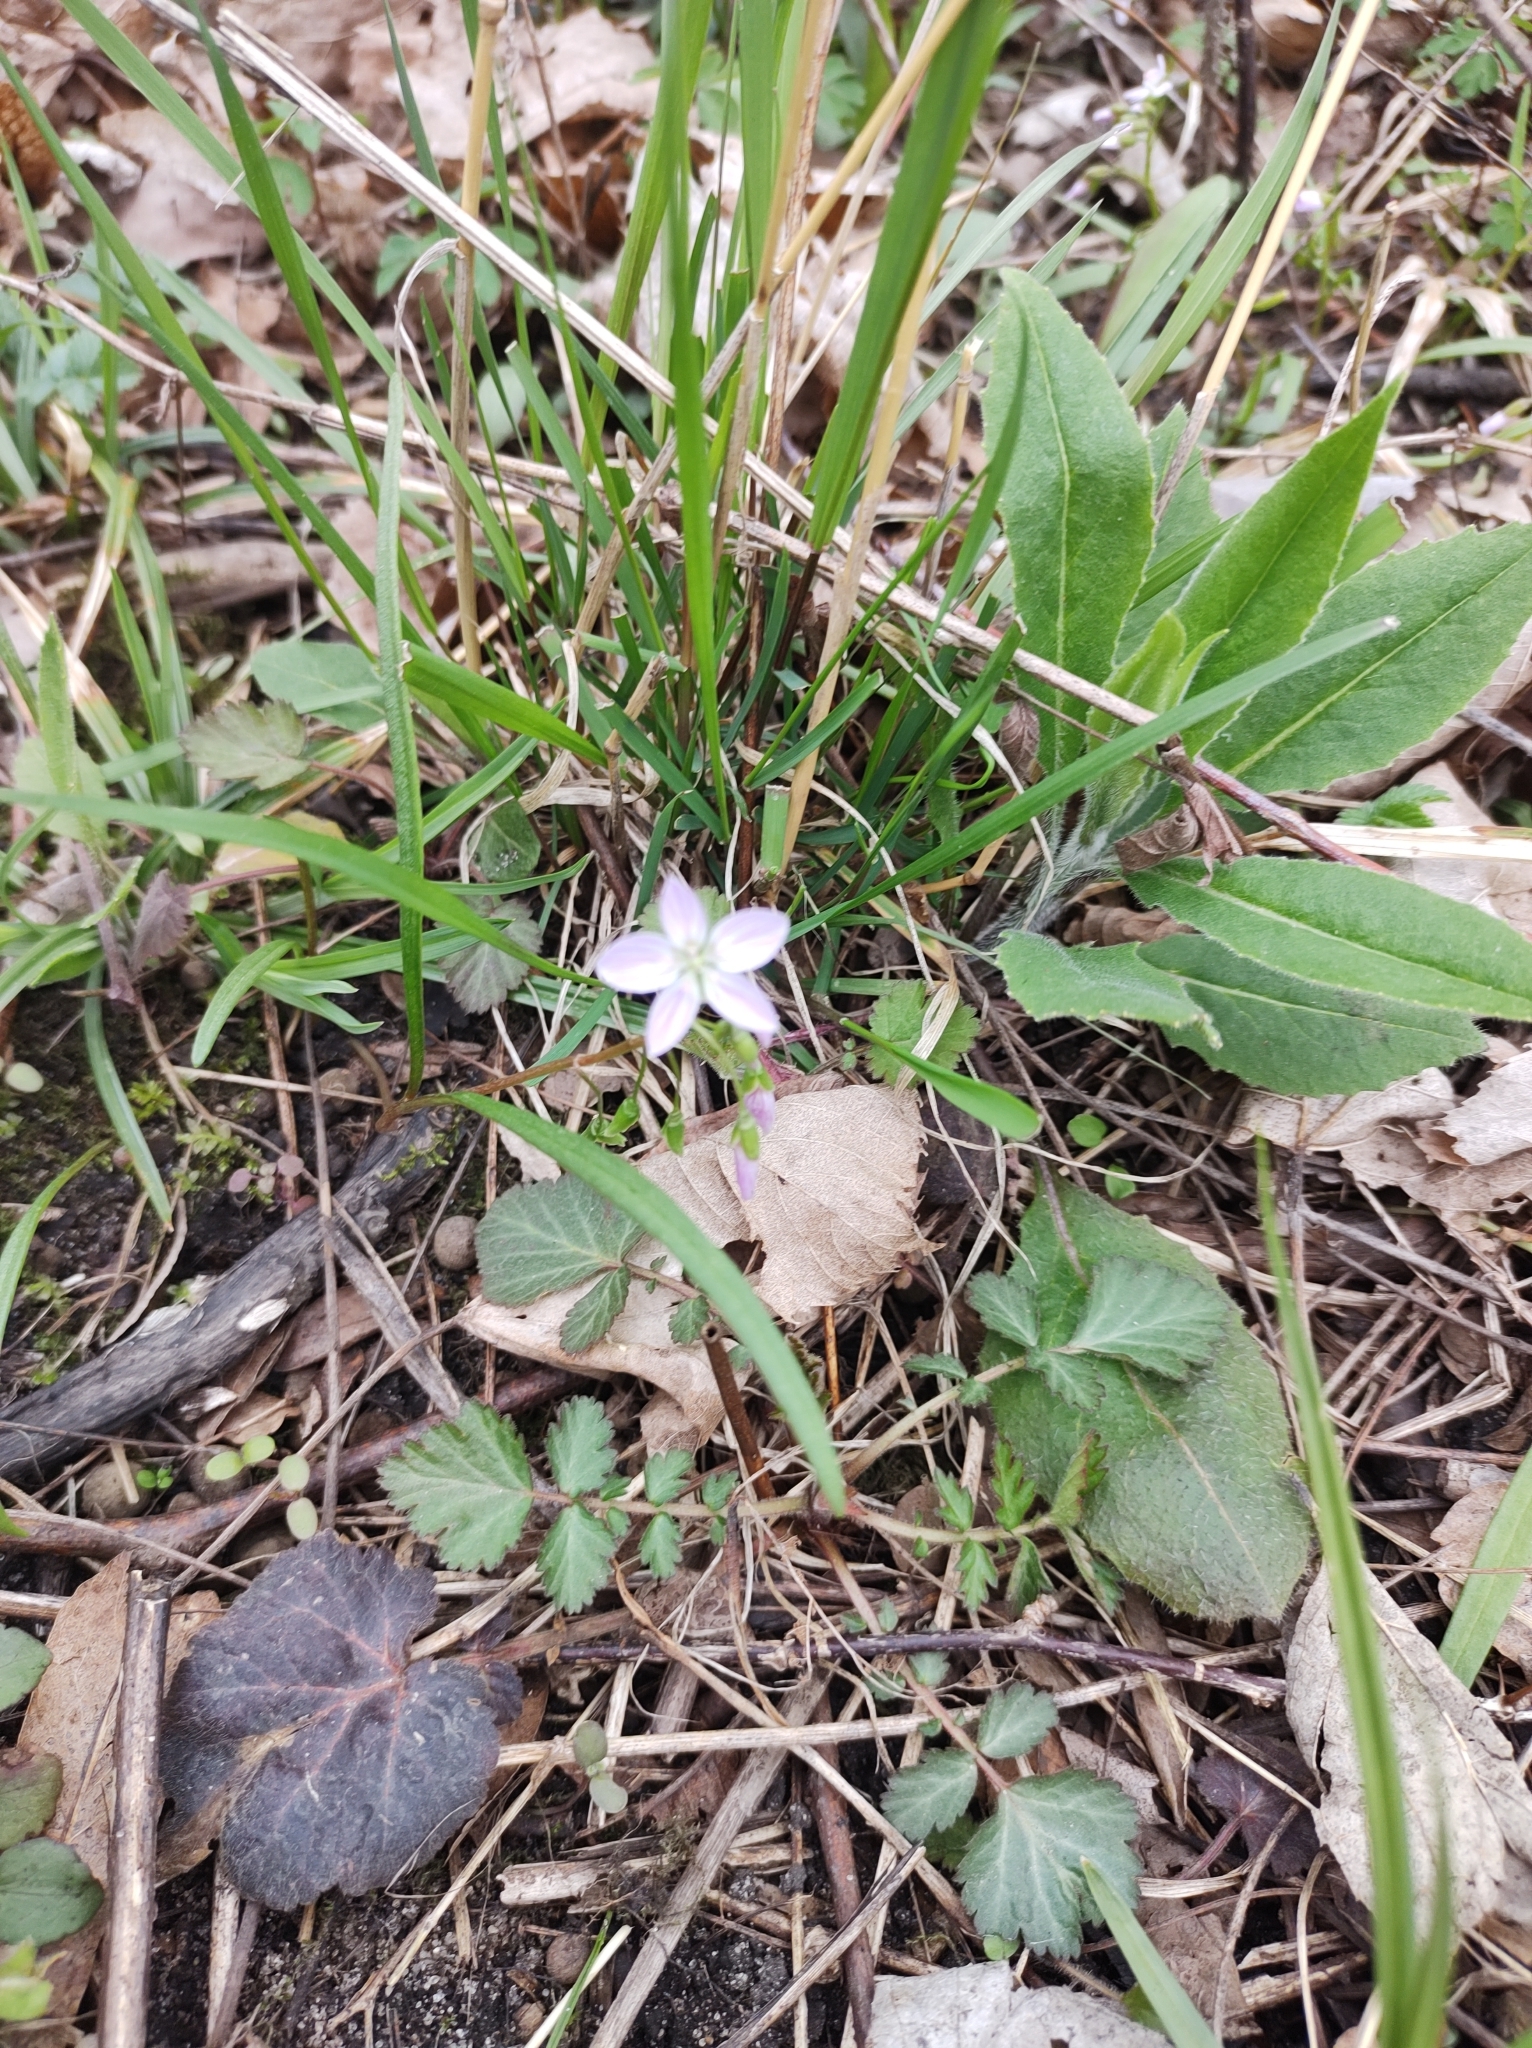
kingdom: Plantae
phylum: Tracheophyta
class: Magnoliopsida
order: Caryophyllales
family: Montiaceae
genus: Claytonia
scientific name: Claytonia virginica
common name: Virginia springbeauty
